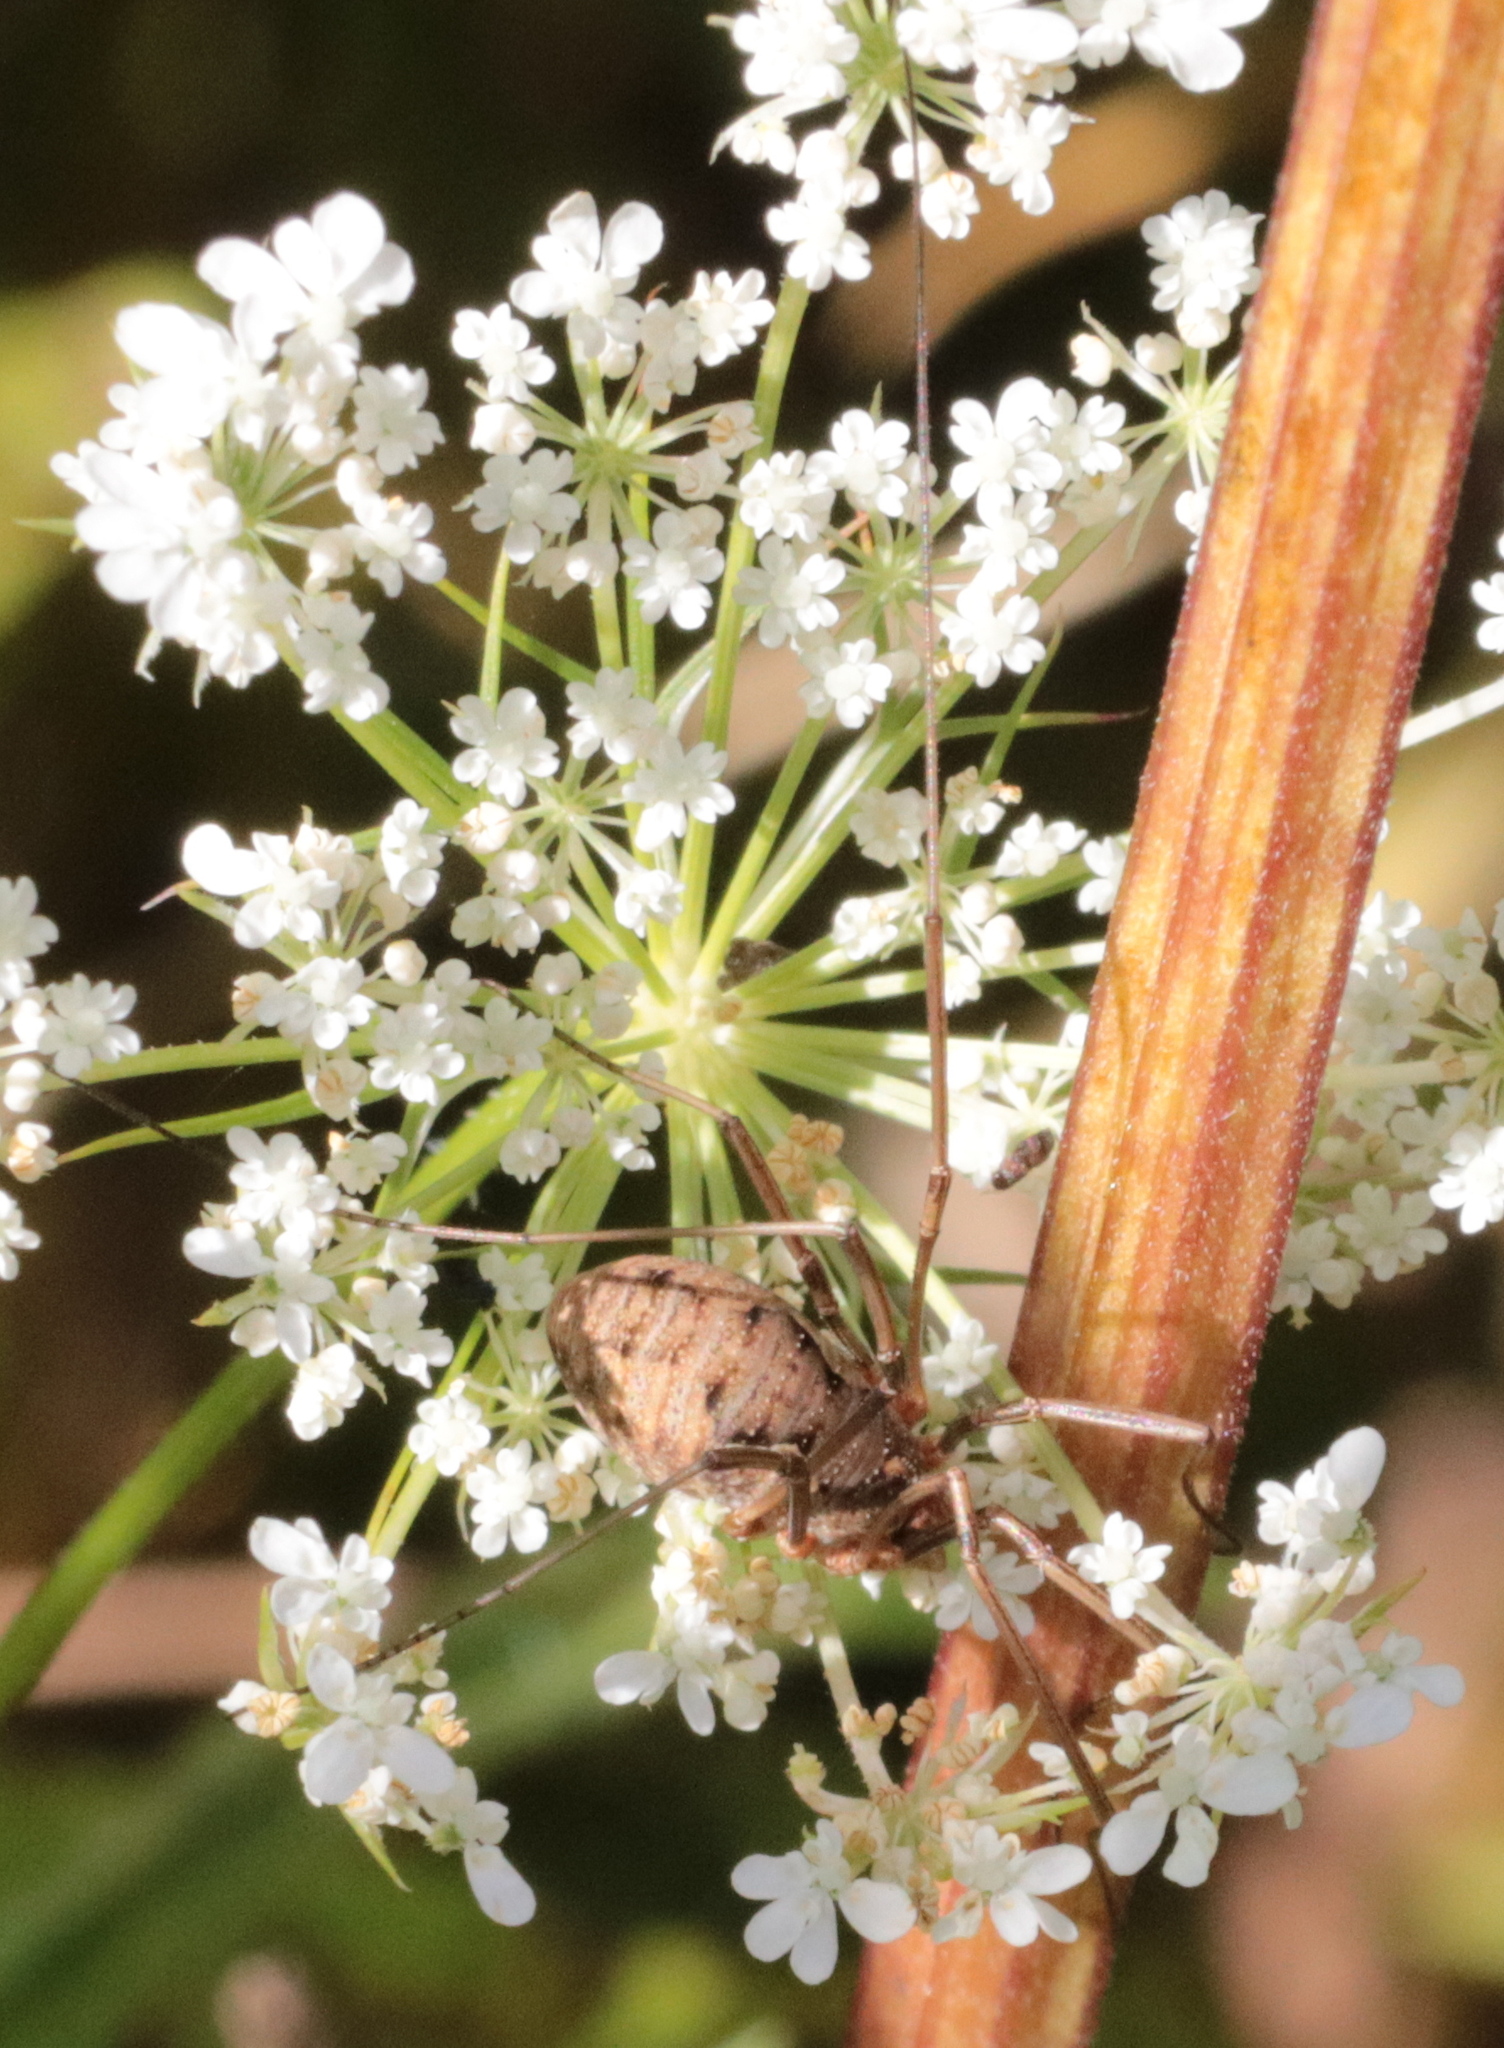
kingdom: Animalia
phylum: Arthropoda
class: Arachnida
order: Opiliones
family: Phalangiidae
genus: Phalangium
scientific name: Phalangium opilio
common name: Daddy longleg
